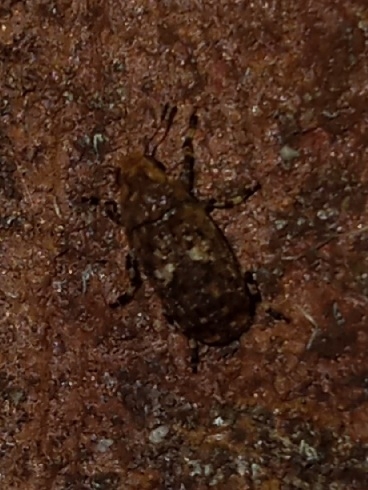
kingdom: Animalia
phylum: Arthropoda
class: Insecta
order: Coleoptera
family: Anthribidae
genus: Euparius
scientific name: Euparius marmoreus
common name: Marbled fungus weevil
